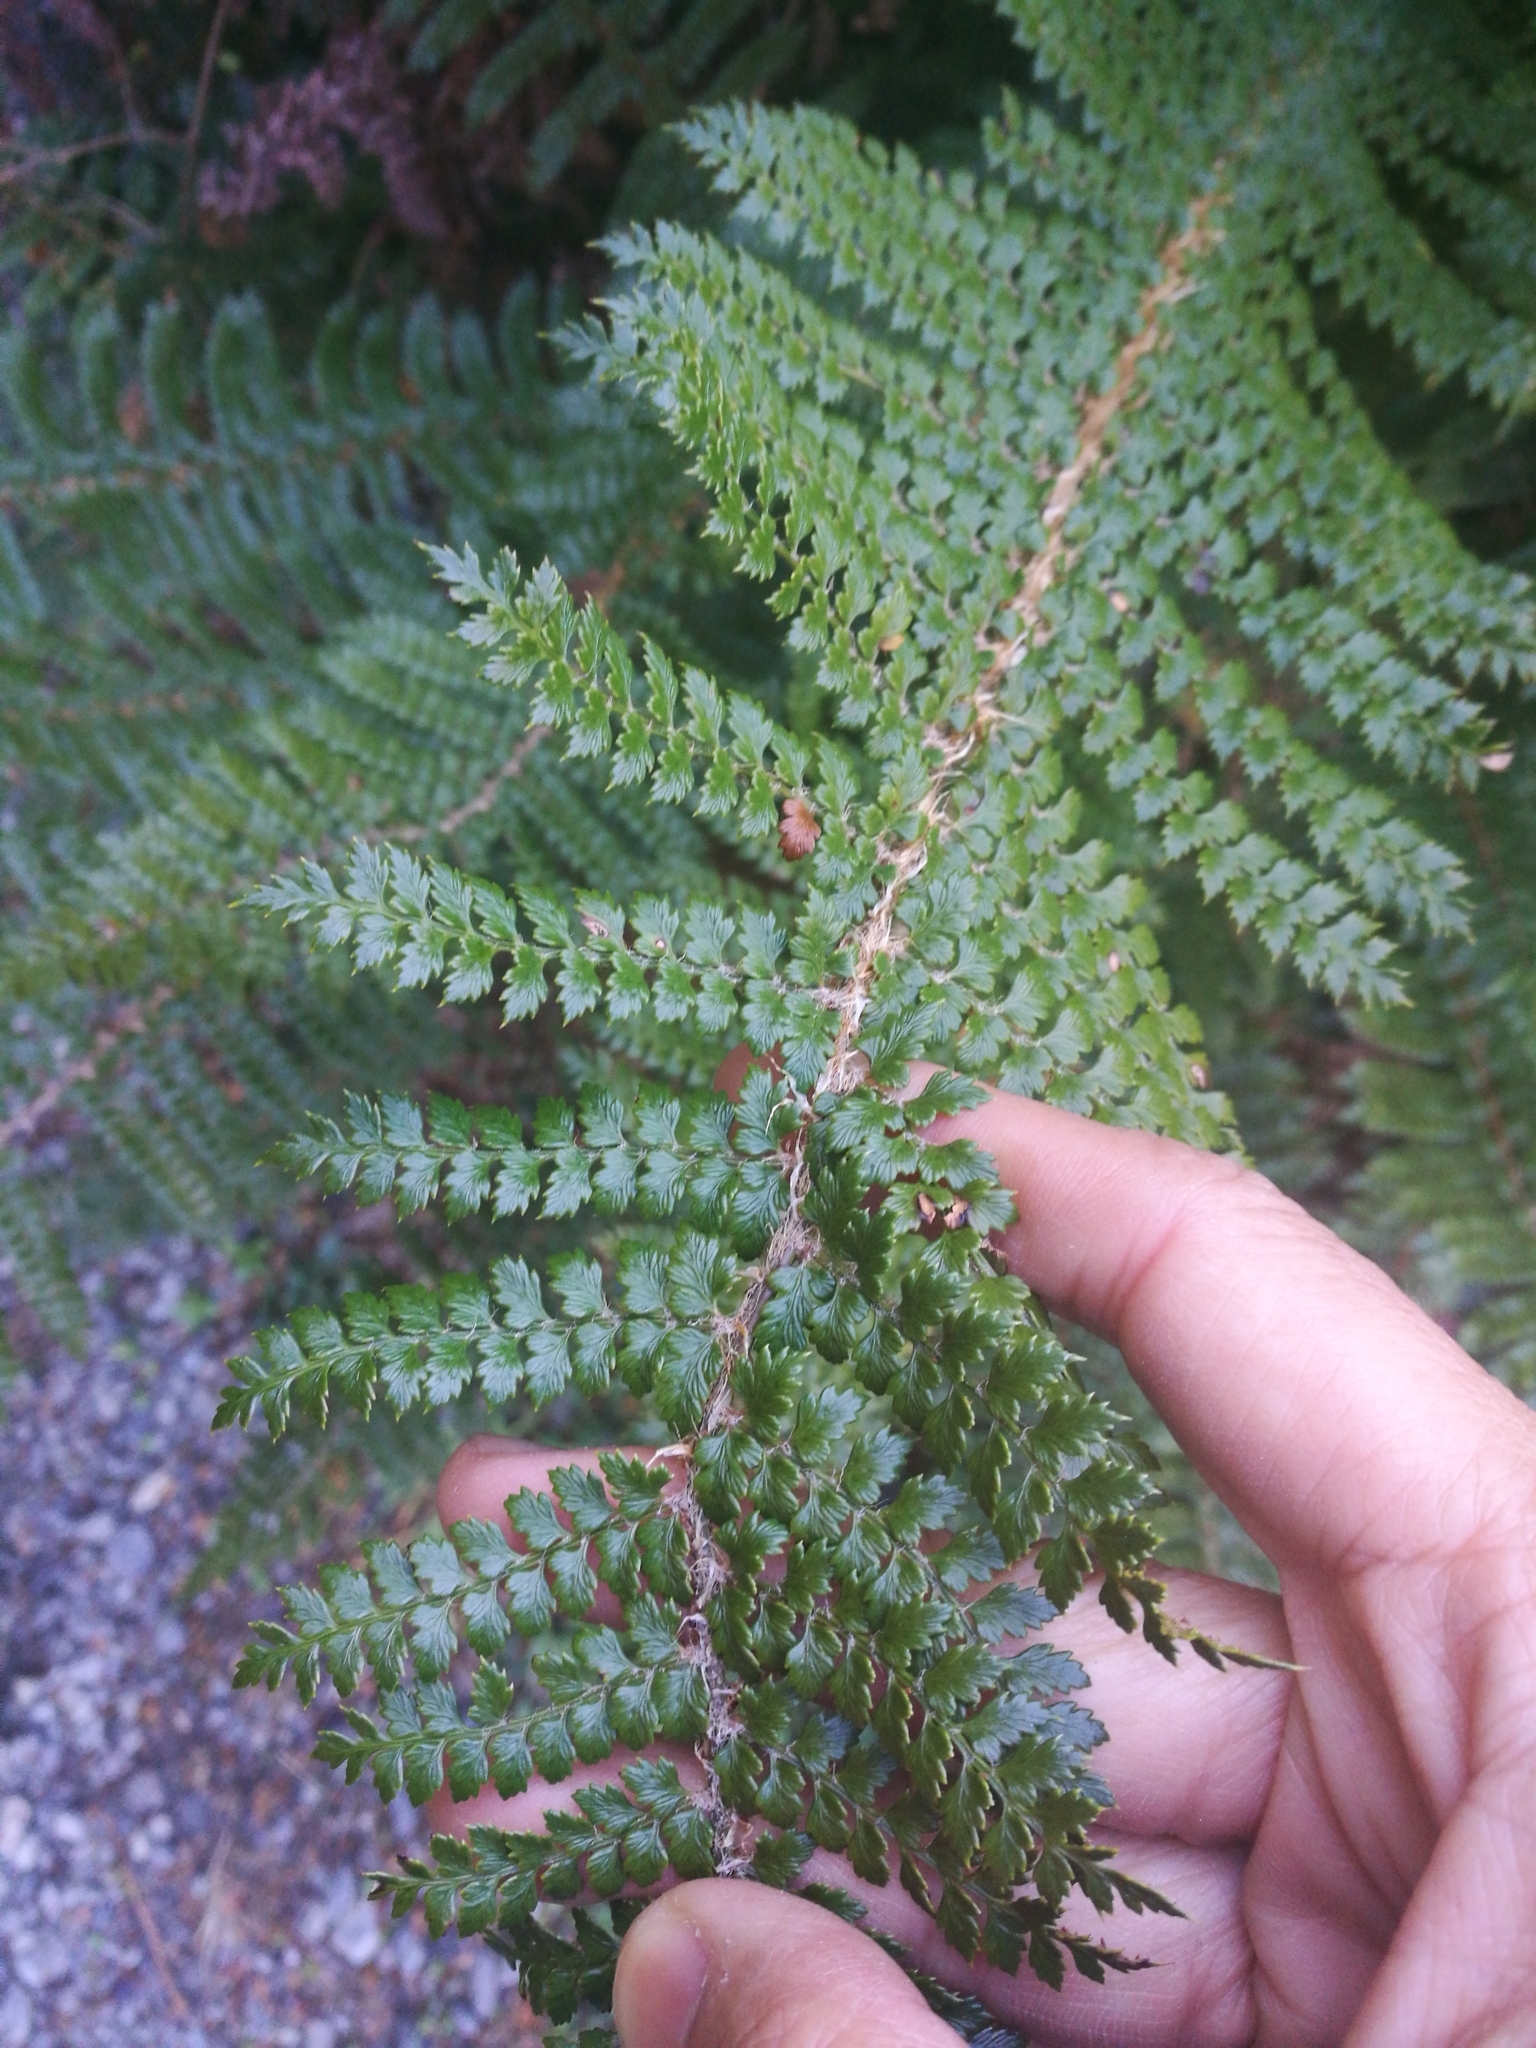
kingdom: Plantae
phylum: Tracheophyta
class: Polypodiopsida
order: Polypodiales
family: Dryopteridaceae
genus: Polystichum
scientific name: Polystichum vestitum
